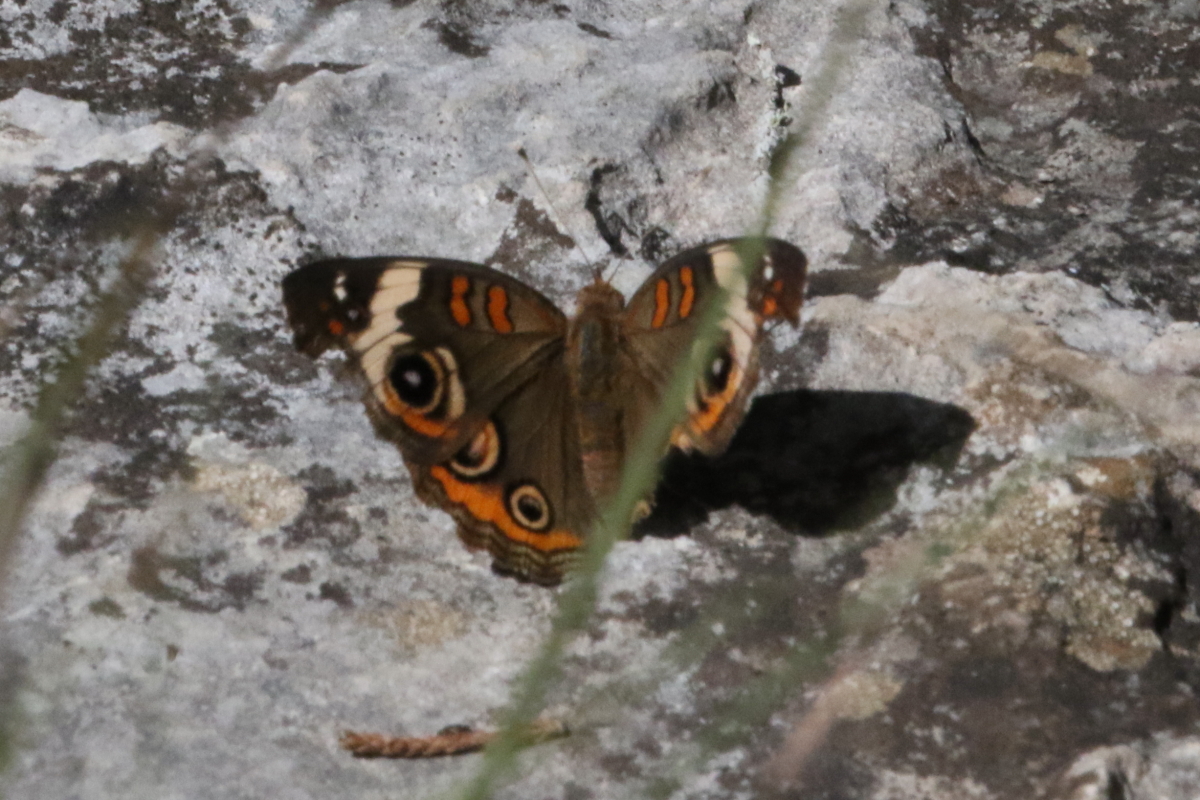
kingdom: Animalia
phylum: Arthropoda
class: Insecta
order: Lepidoptera
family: Nymphalidae
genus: Junonia
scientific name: Junonia coenia
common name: Common buckeye
